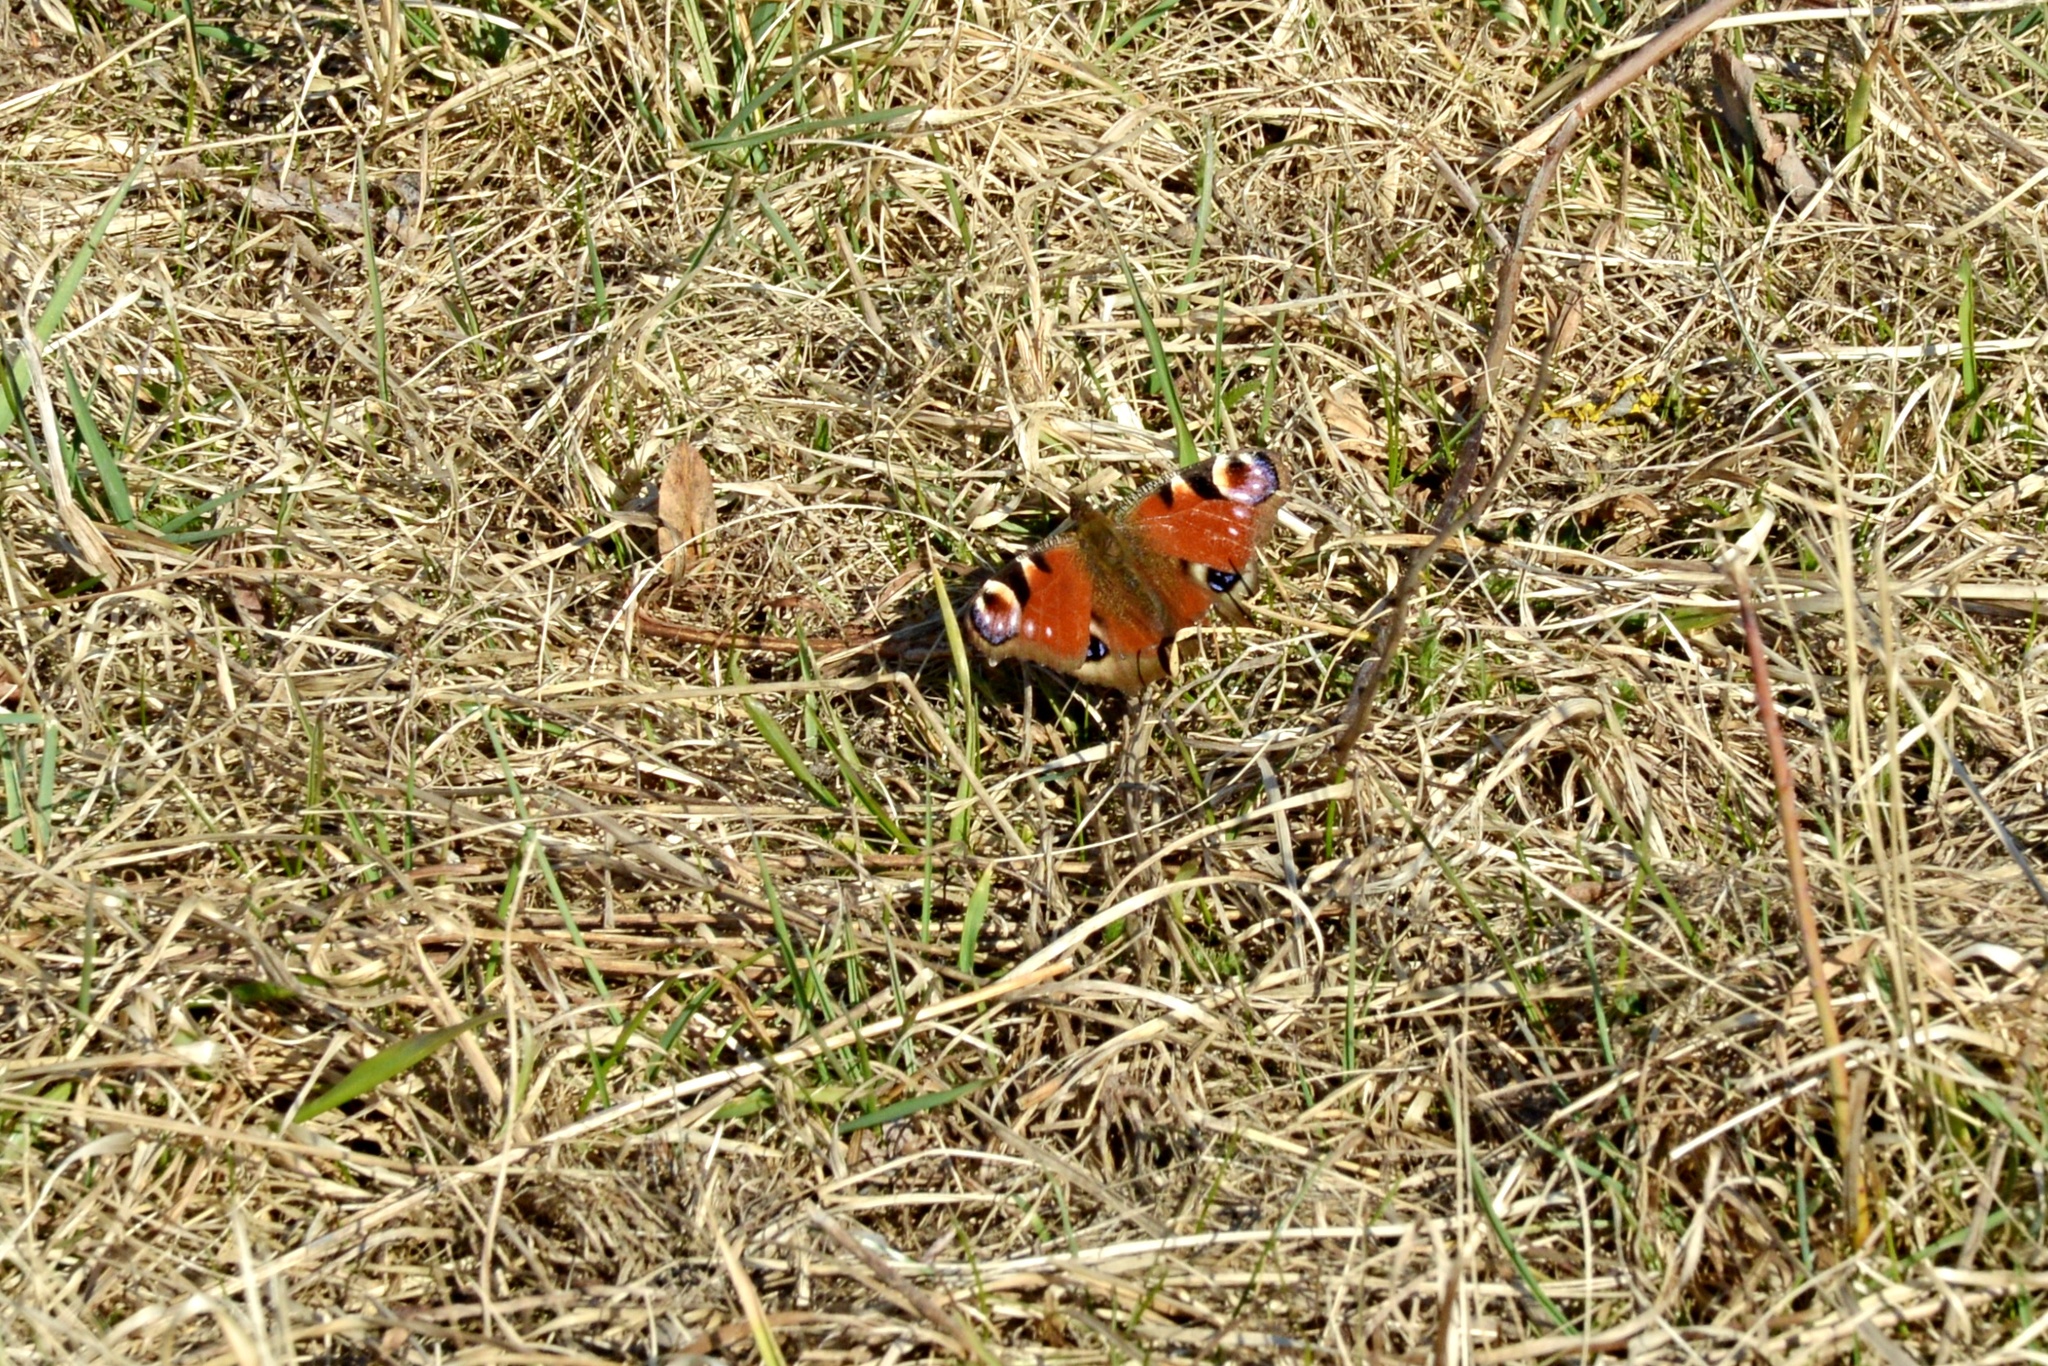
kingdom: Animalia
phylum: Arthropoda
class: Insecta
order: Lepidoptera
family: Nymphalidae
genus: Aglais
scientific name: Aglais io
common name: Peacock
